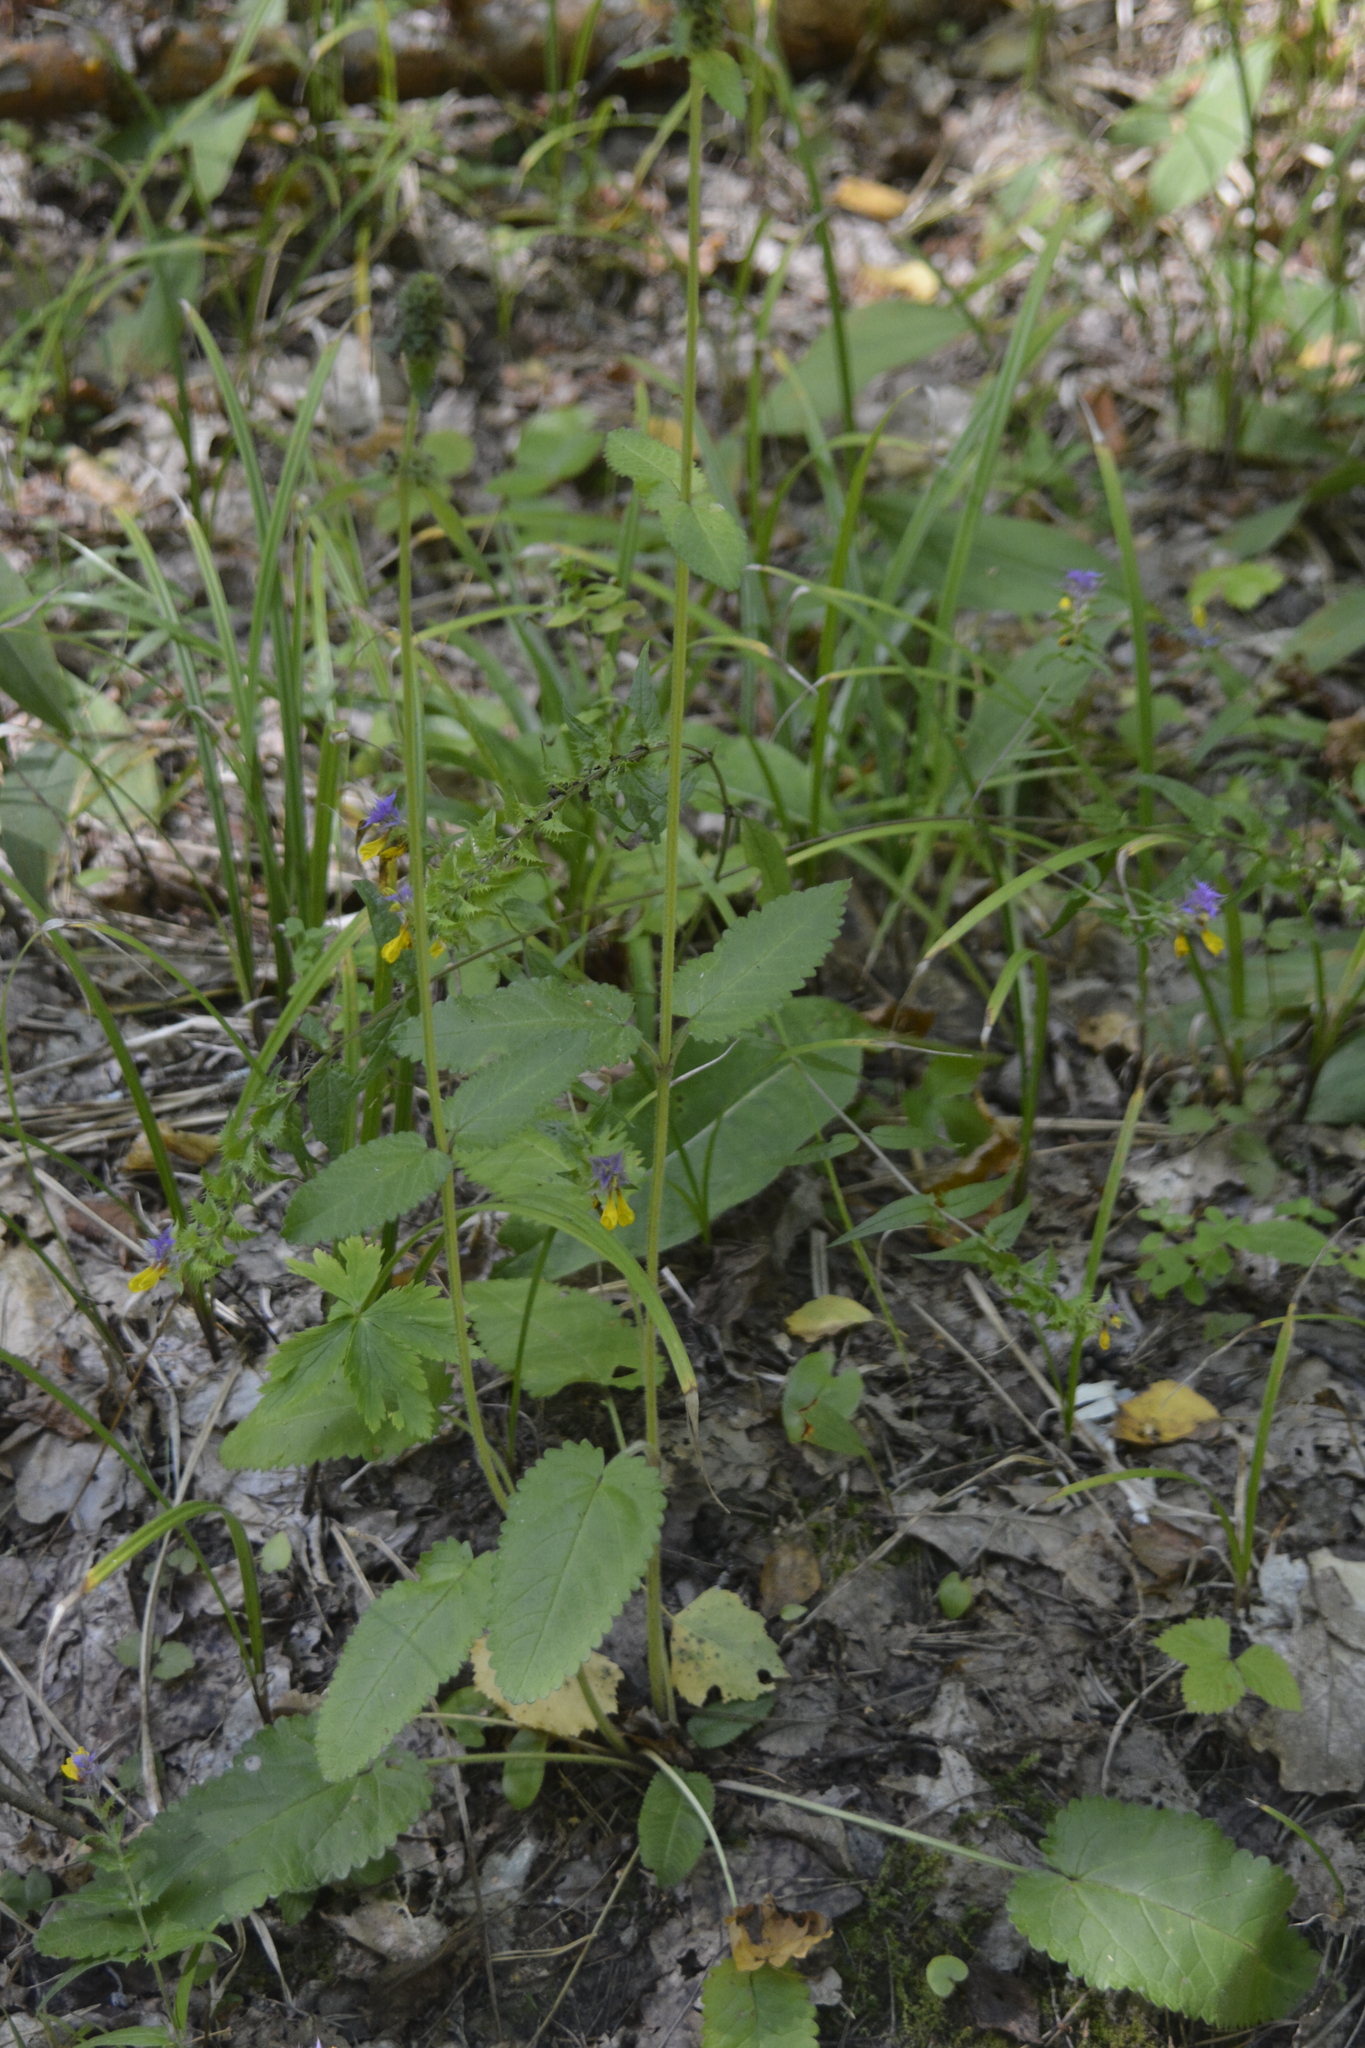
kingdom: Plantae
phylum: Tracheophyta
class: Magnoliopsida
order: Lamiales
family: Lamiaceae
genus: Betonica
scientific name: Betonica officinalis
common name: Bishop's-wort
